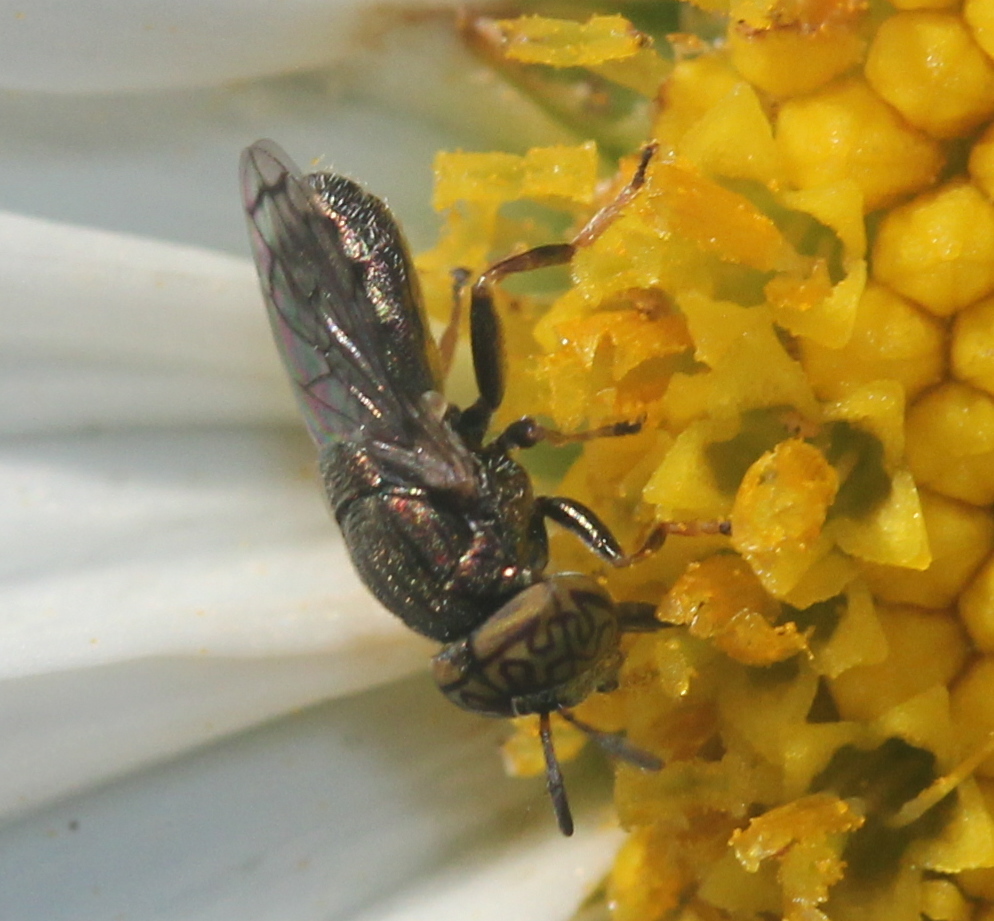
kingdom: Animalia
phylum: Arthropoda
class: Insecta
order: Diptera
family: Syrphidae
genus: Orthonevra
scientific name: Orthonevra nitida
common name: Wavy mucksucker
